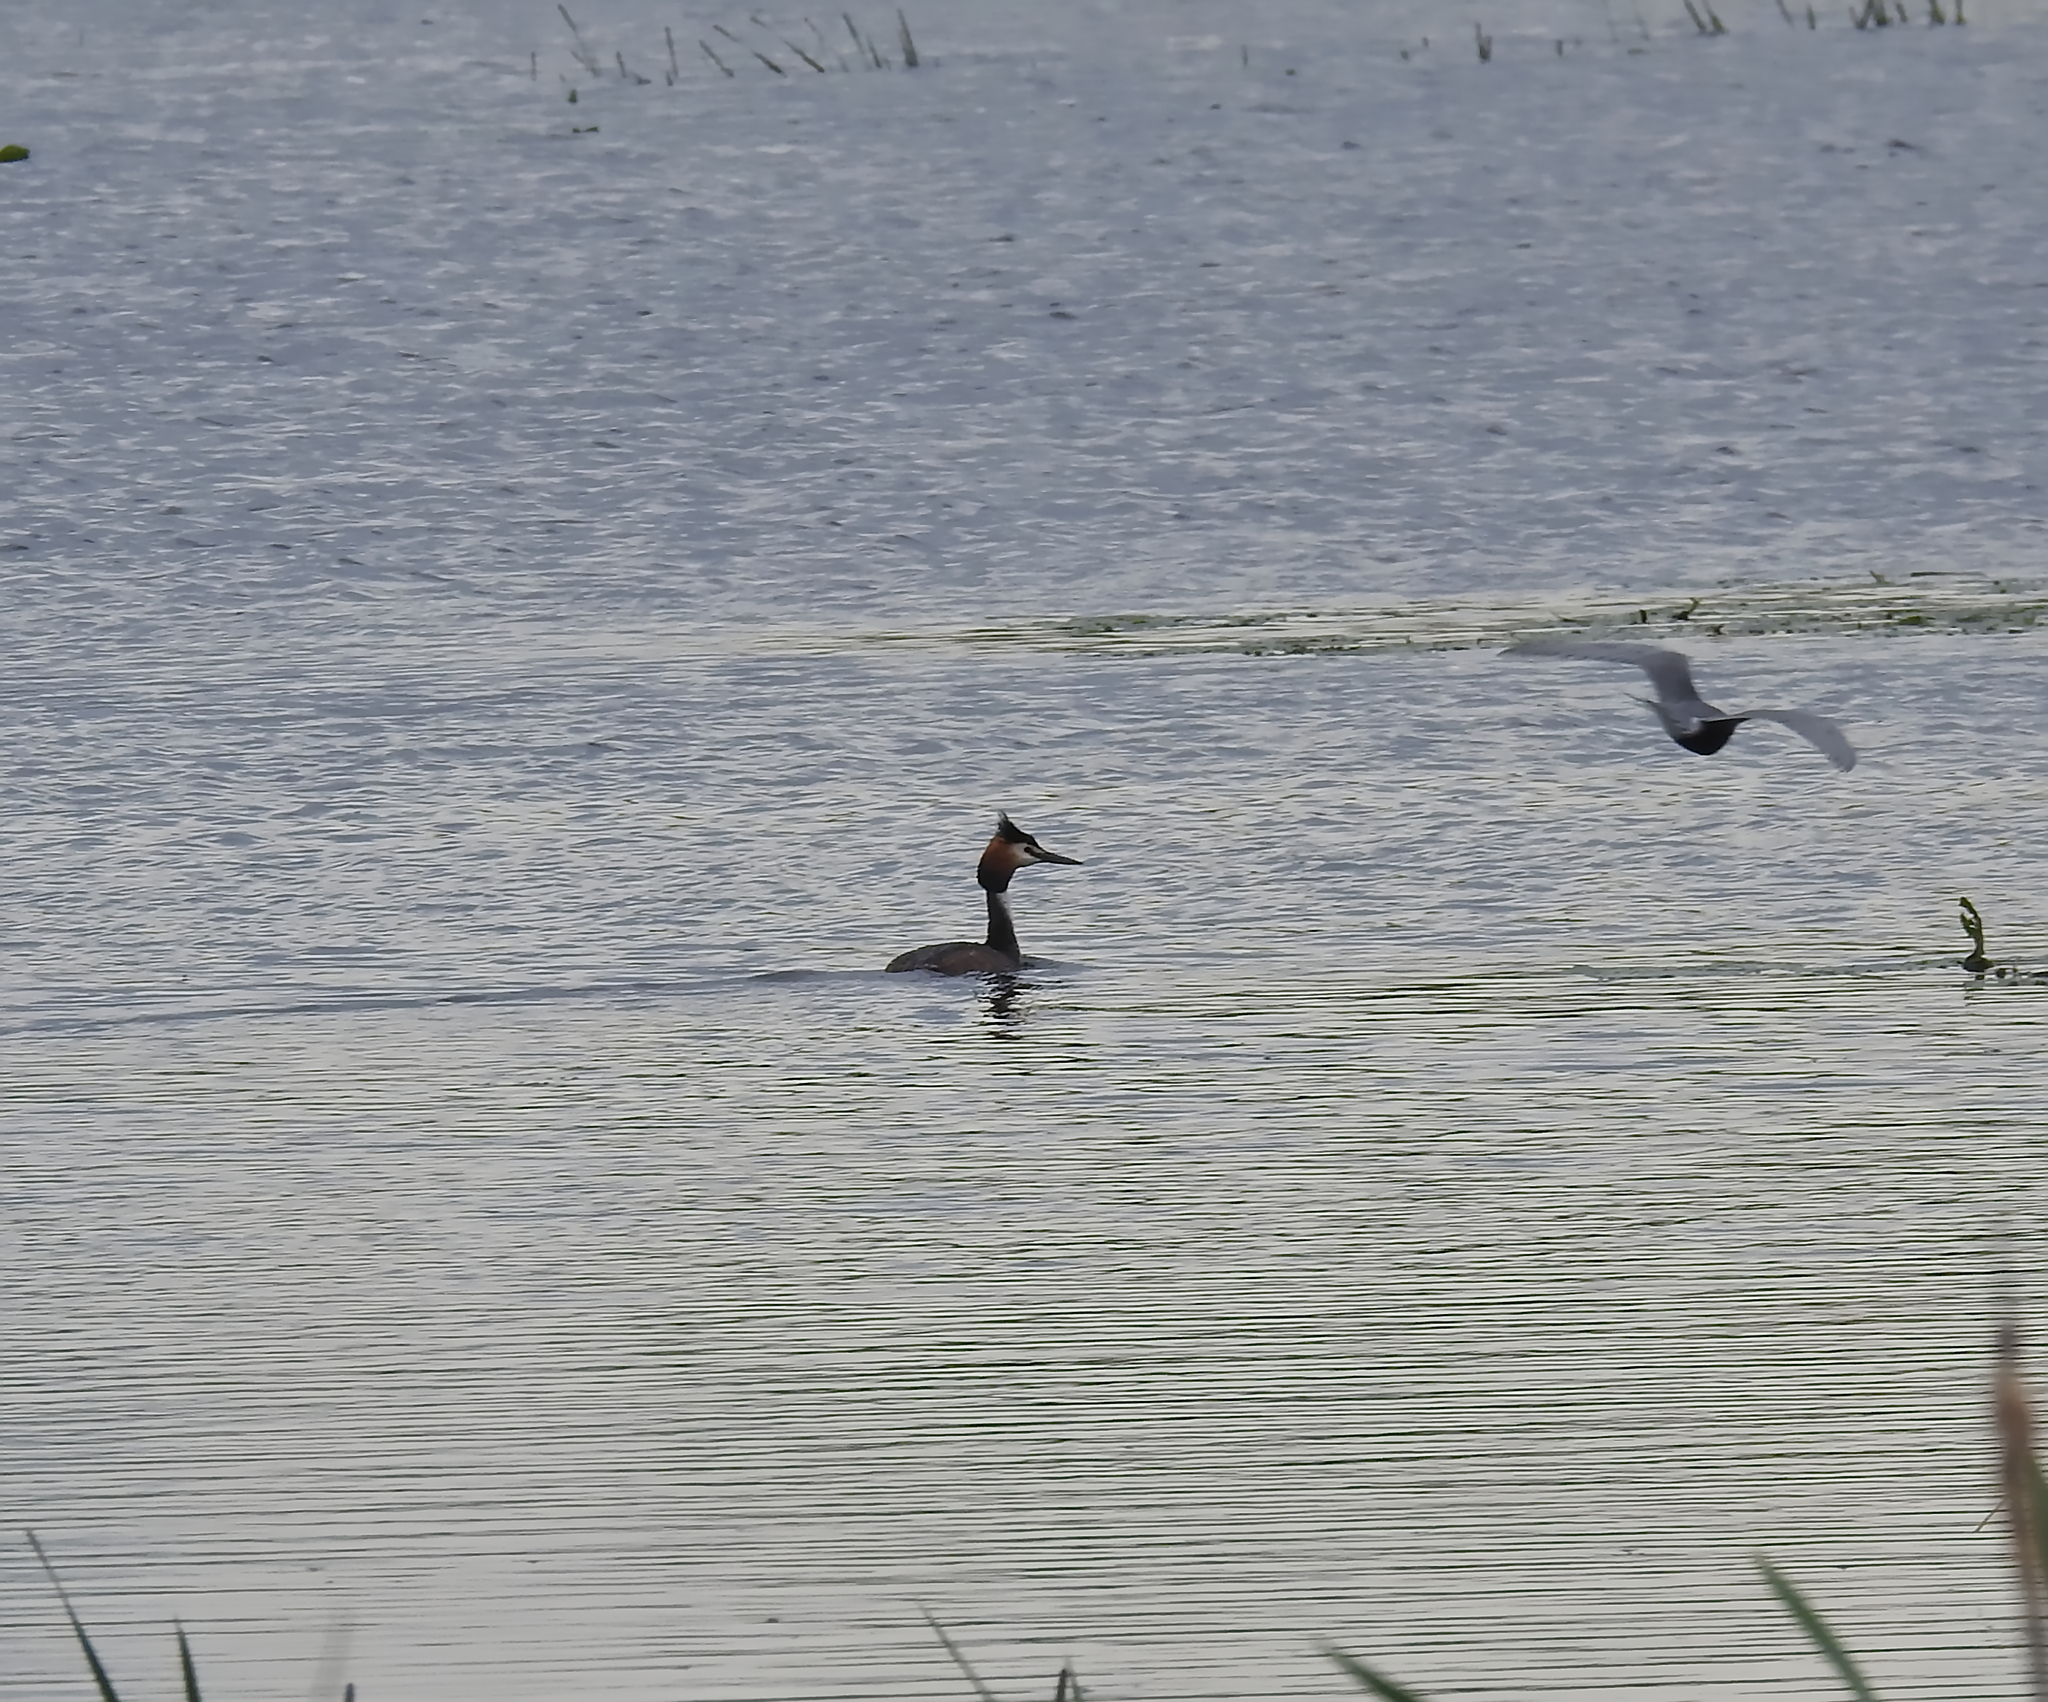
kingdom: Animalia
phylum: Chordata
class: Aves
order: Podicipediformes
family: Podicipedidae
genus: Podiceps
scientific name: Podiceps cristatus
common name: Great crested grebe
